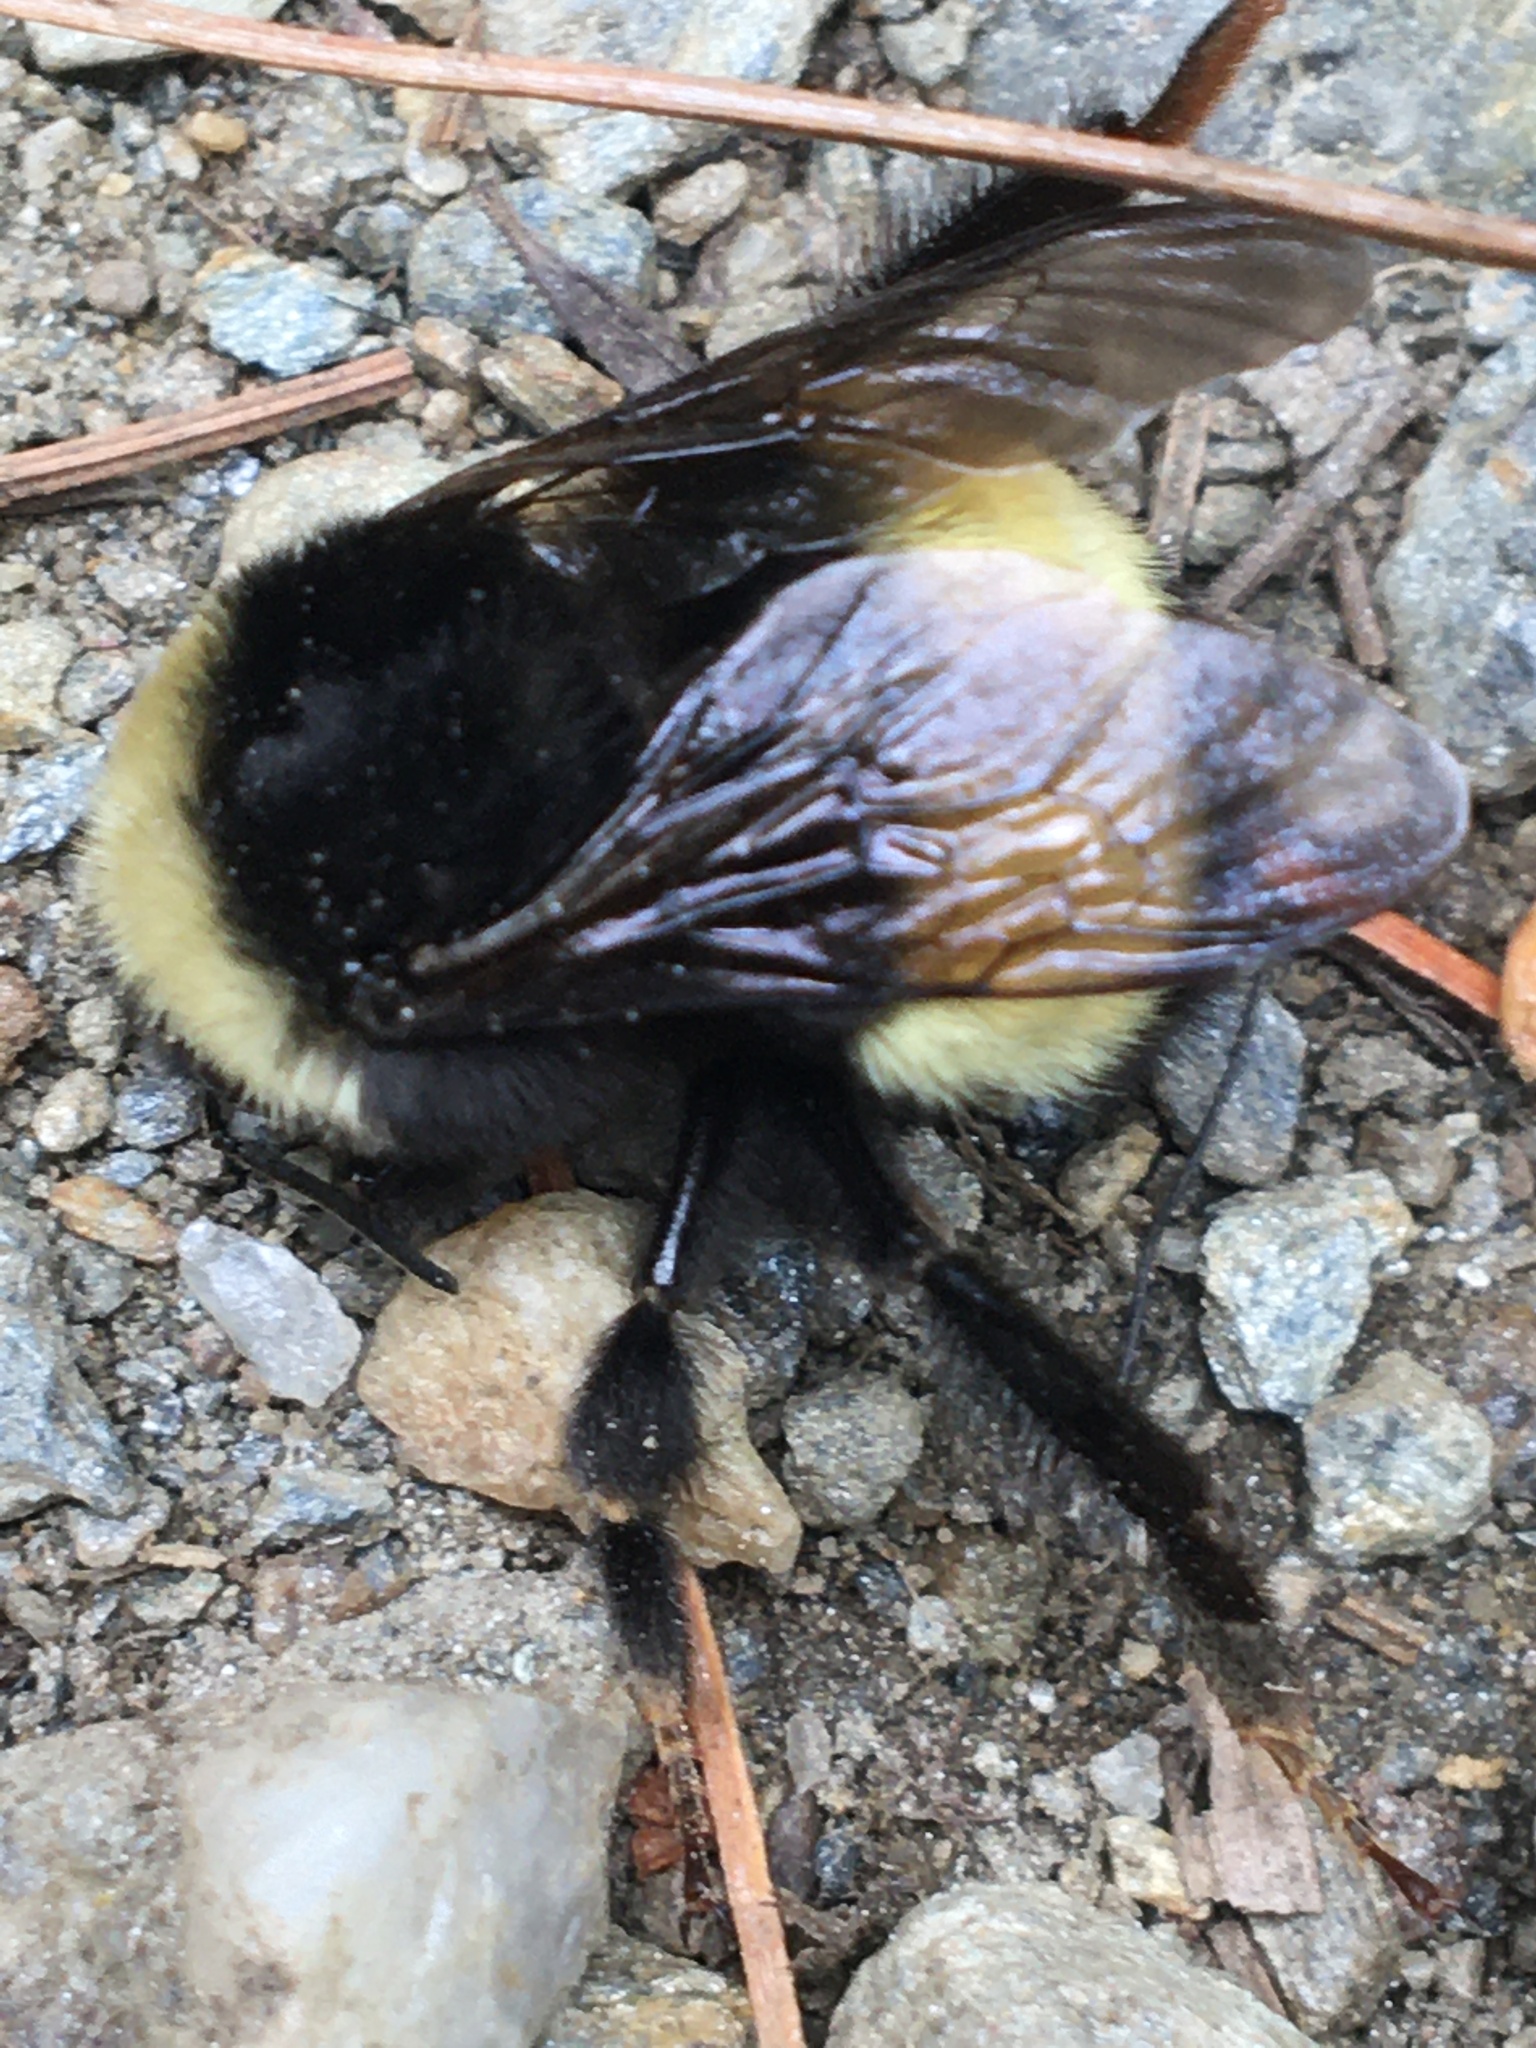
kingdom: Animalia
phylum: Arthropoda
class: Insecta
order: Hymenoptera
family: Apidae
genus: Bombus
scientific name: Bombus terricola
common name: Yellow-banded bumble bee
